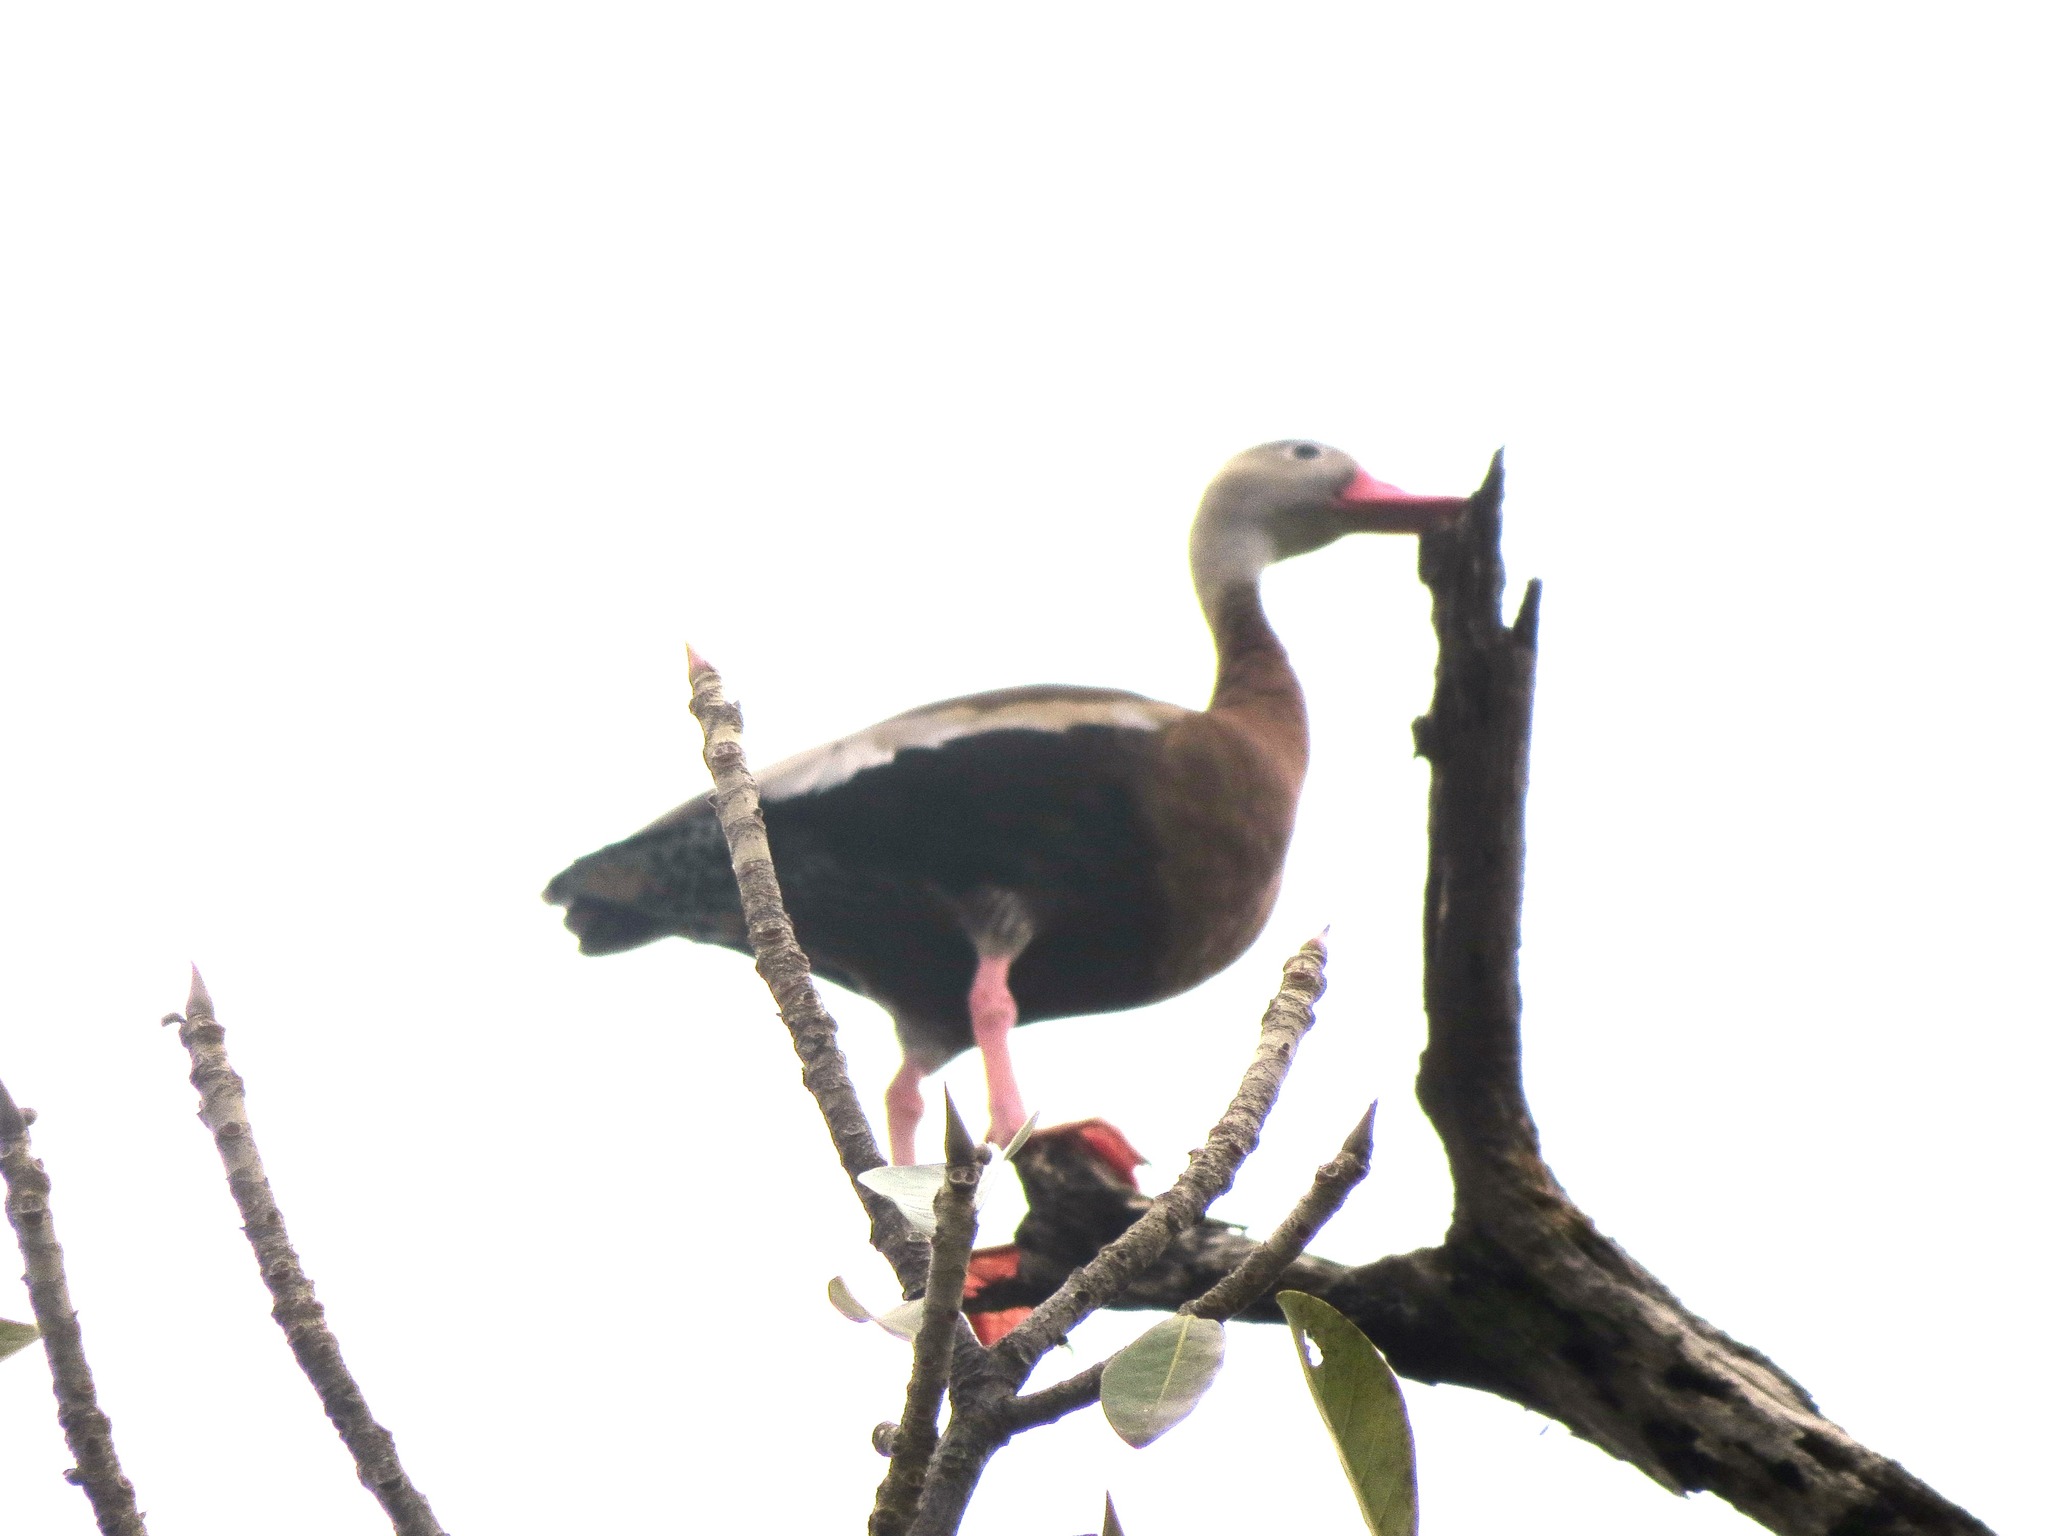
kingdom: Animalia
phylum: Chordata
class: Aves
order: Anseriformes
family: Anatidae
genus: Dendrocygna
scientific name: Dendrocygna autumnalis
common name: Black-bellied whistling duck
